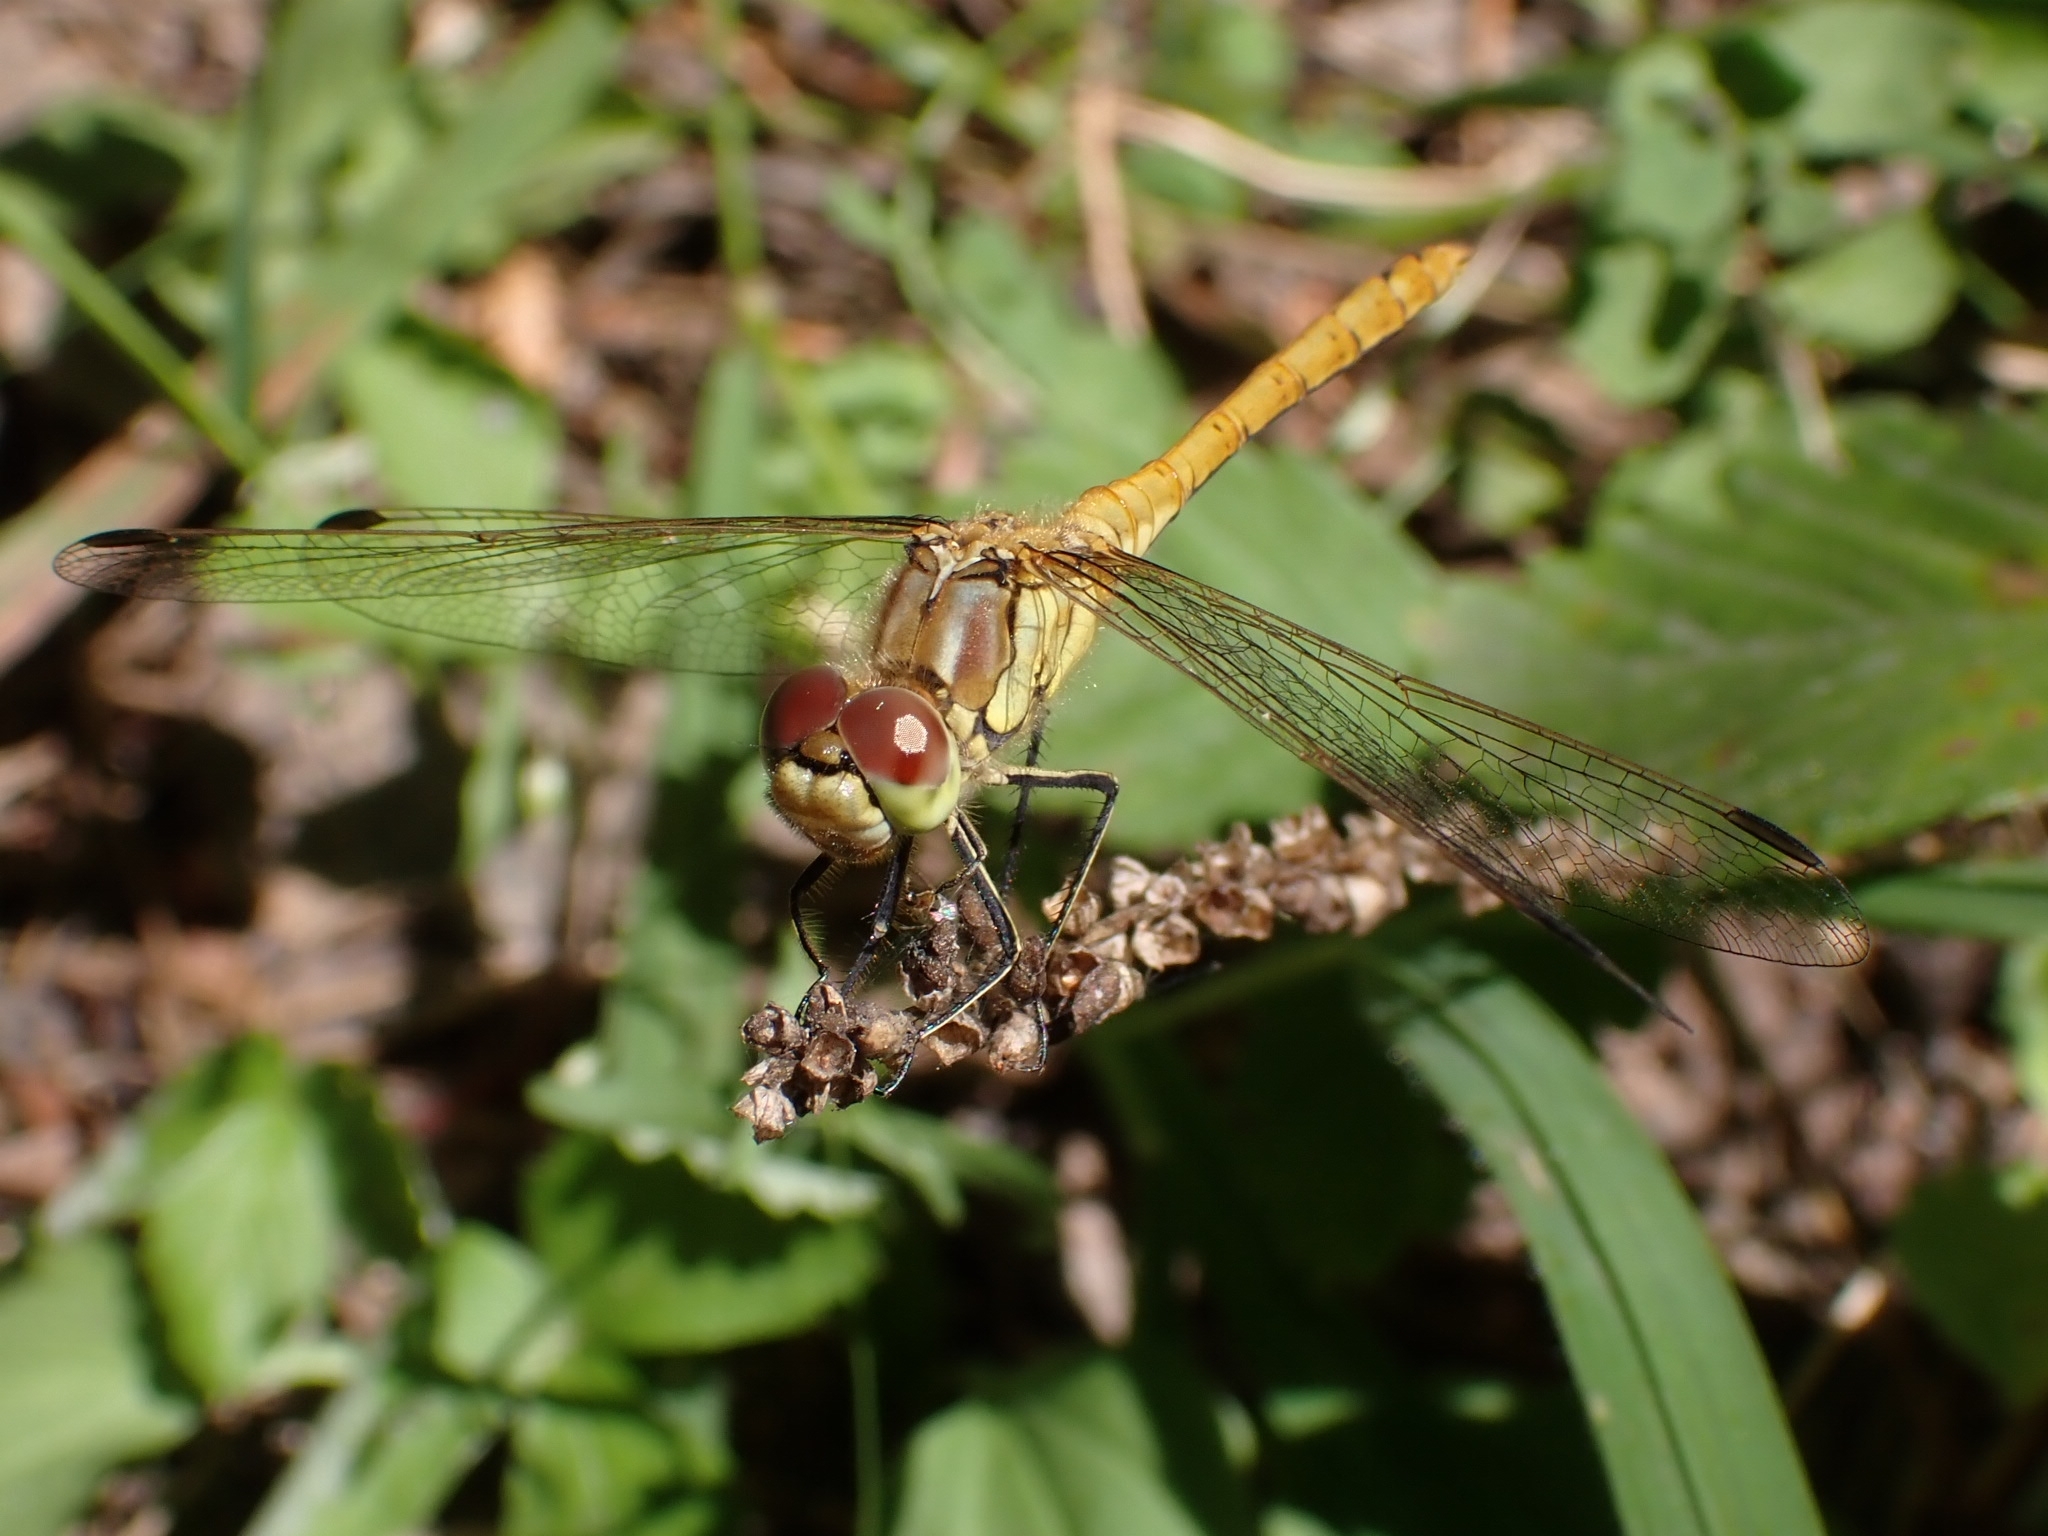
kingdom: Animalia
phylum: Arthropoda
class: Insecta
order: Odonata
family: Libellulidae
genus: Sympetrum
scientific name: Sympetrum vulgatum
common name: Vagrant darter
